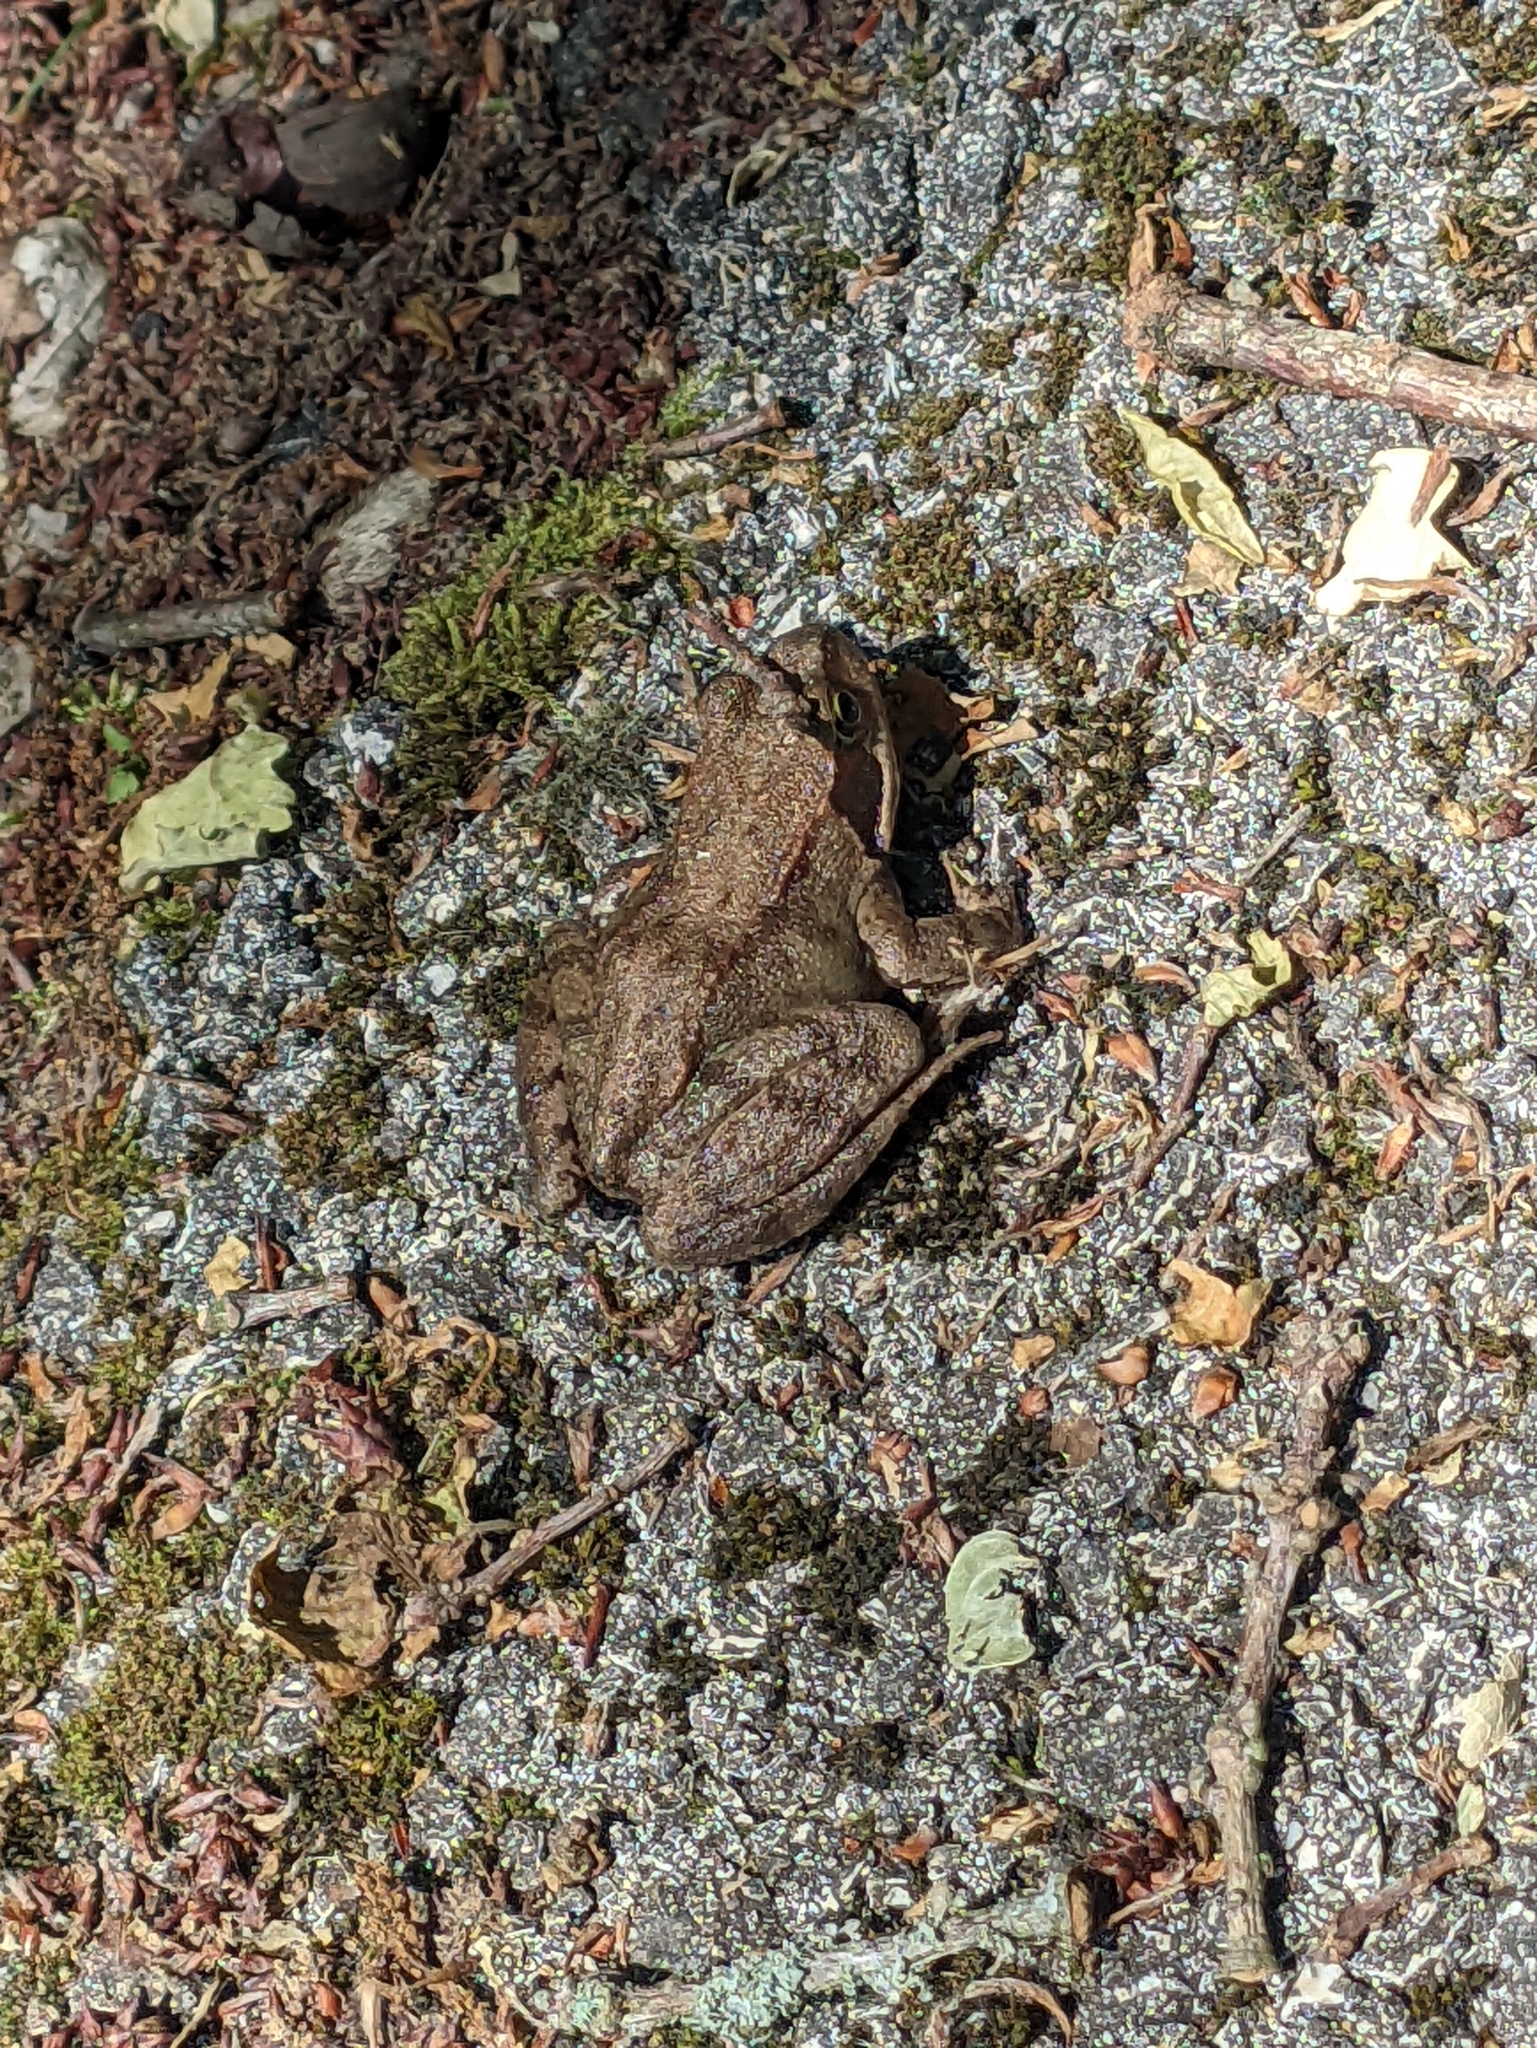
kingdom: Animalia
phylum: Chordata
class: Amphibia
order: Anura
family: Ranidae
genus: Rana
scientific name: Rana temporaria
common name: Common frog
